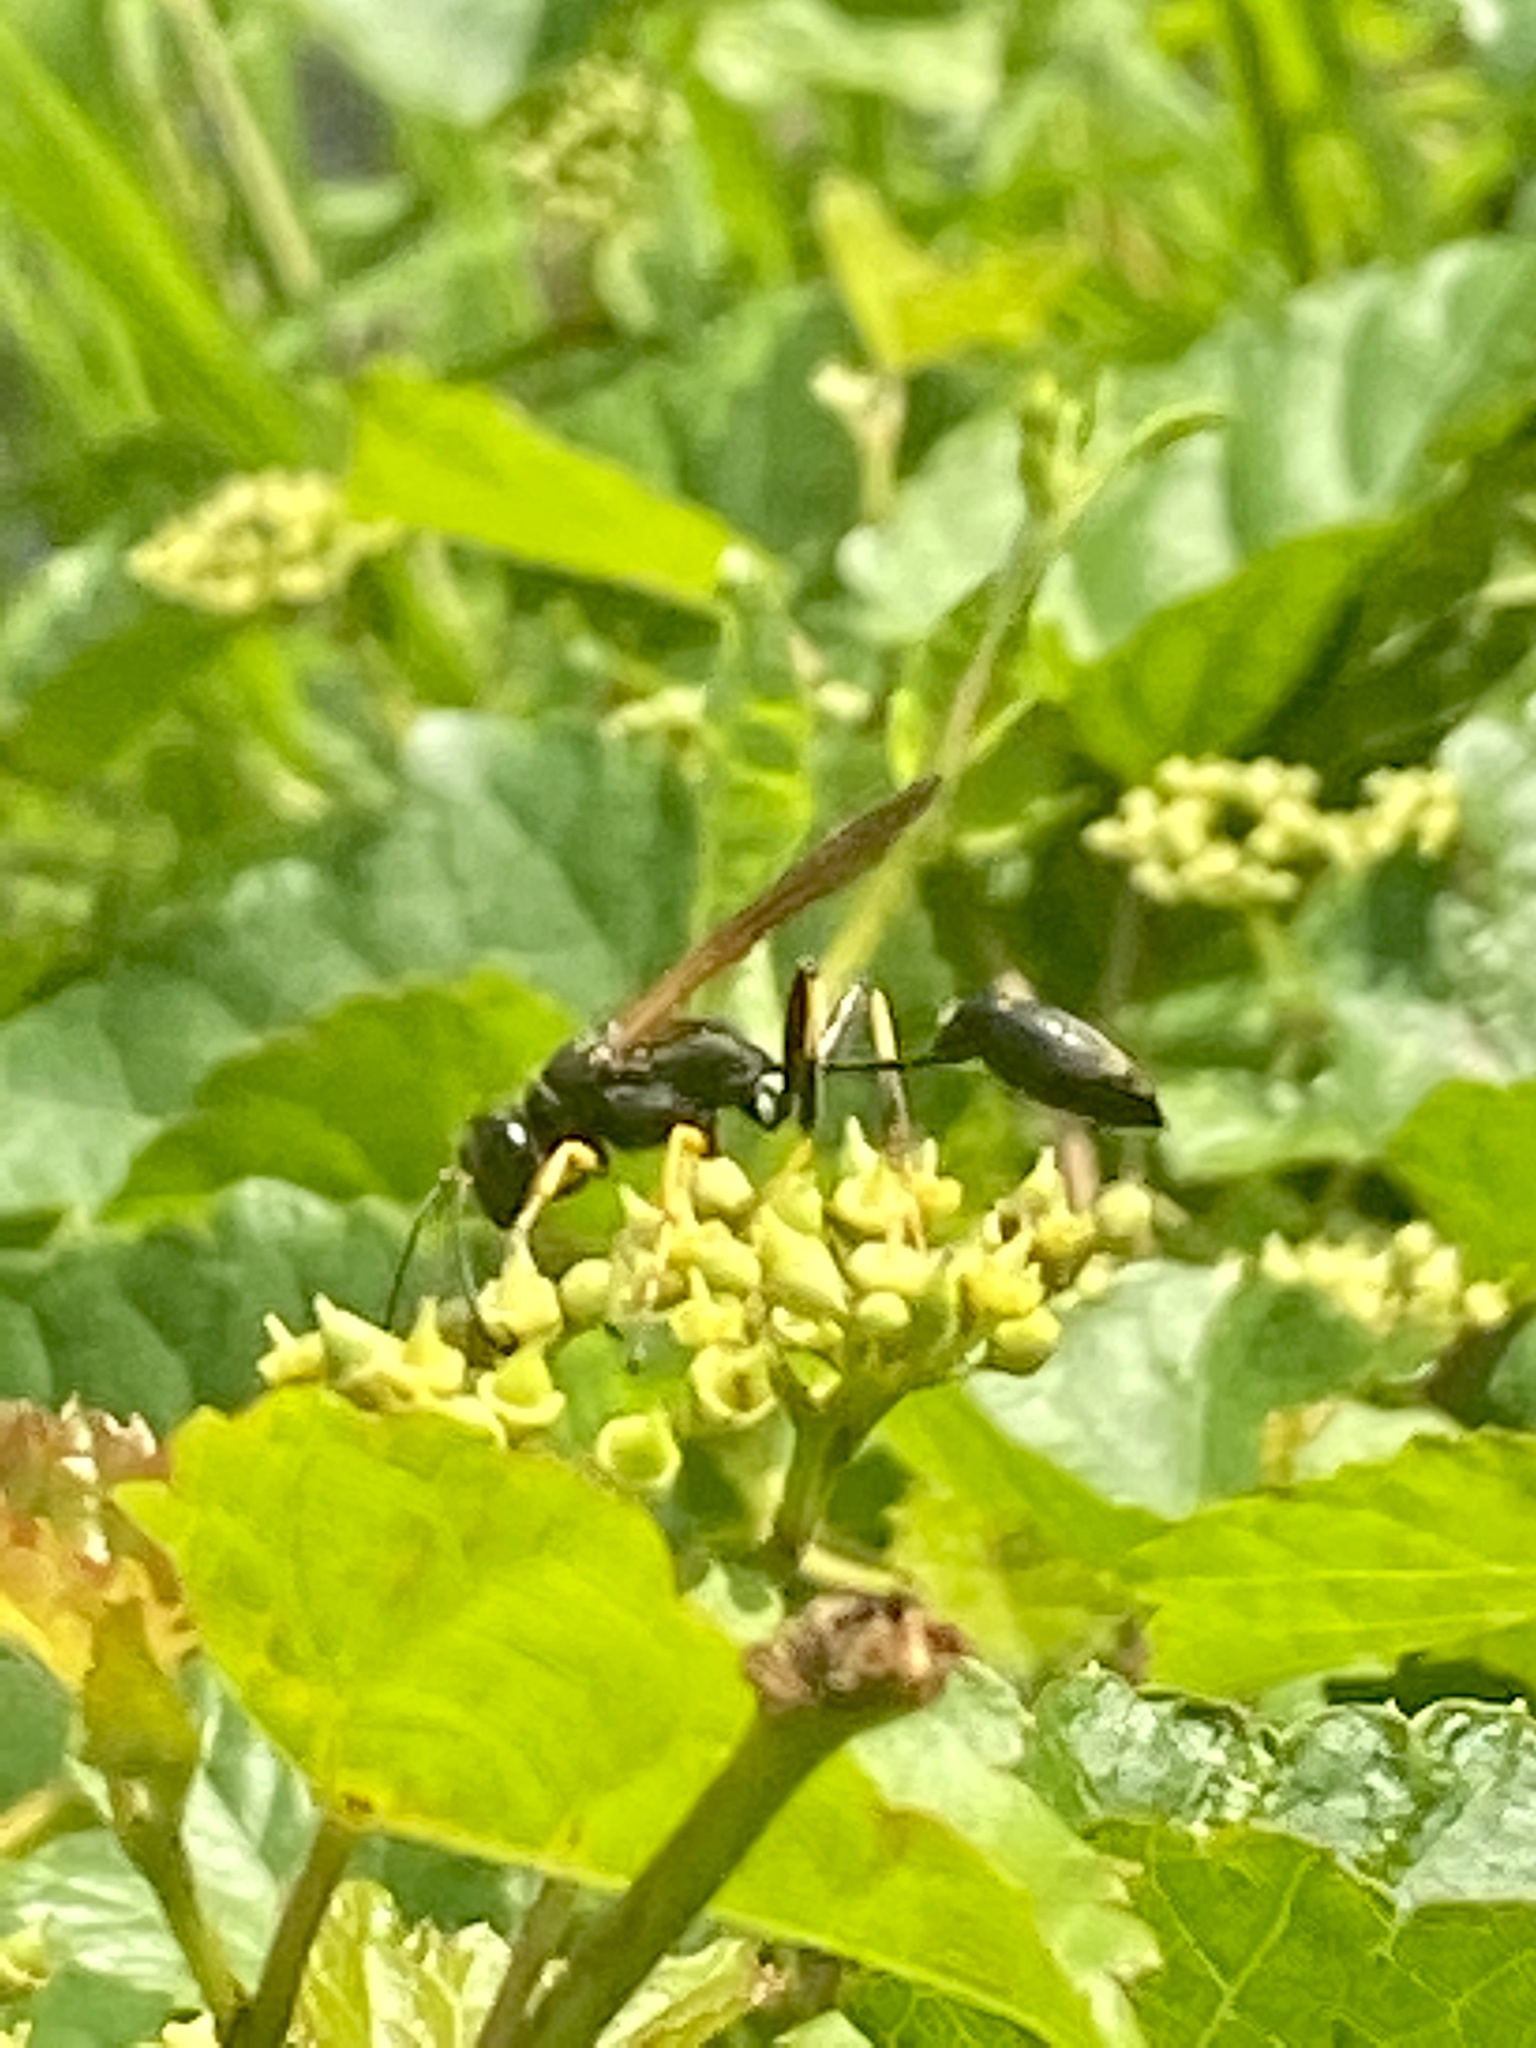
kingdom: Animalia
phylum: Arthropoda
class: Insecta
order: Hymenoptera
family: Sphecidae
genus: Sceliphron
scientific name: Sceliphron caementarium
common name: Mud dauber
